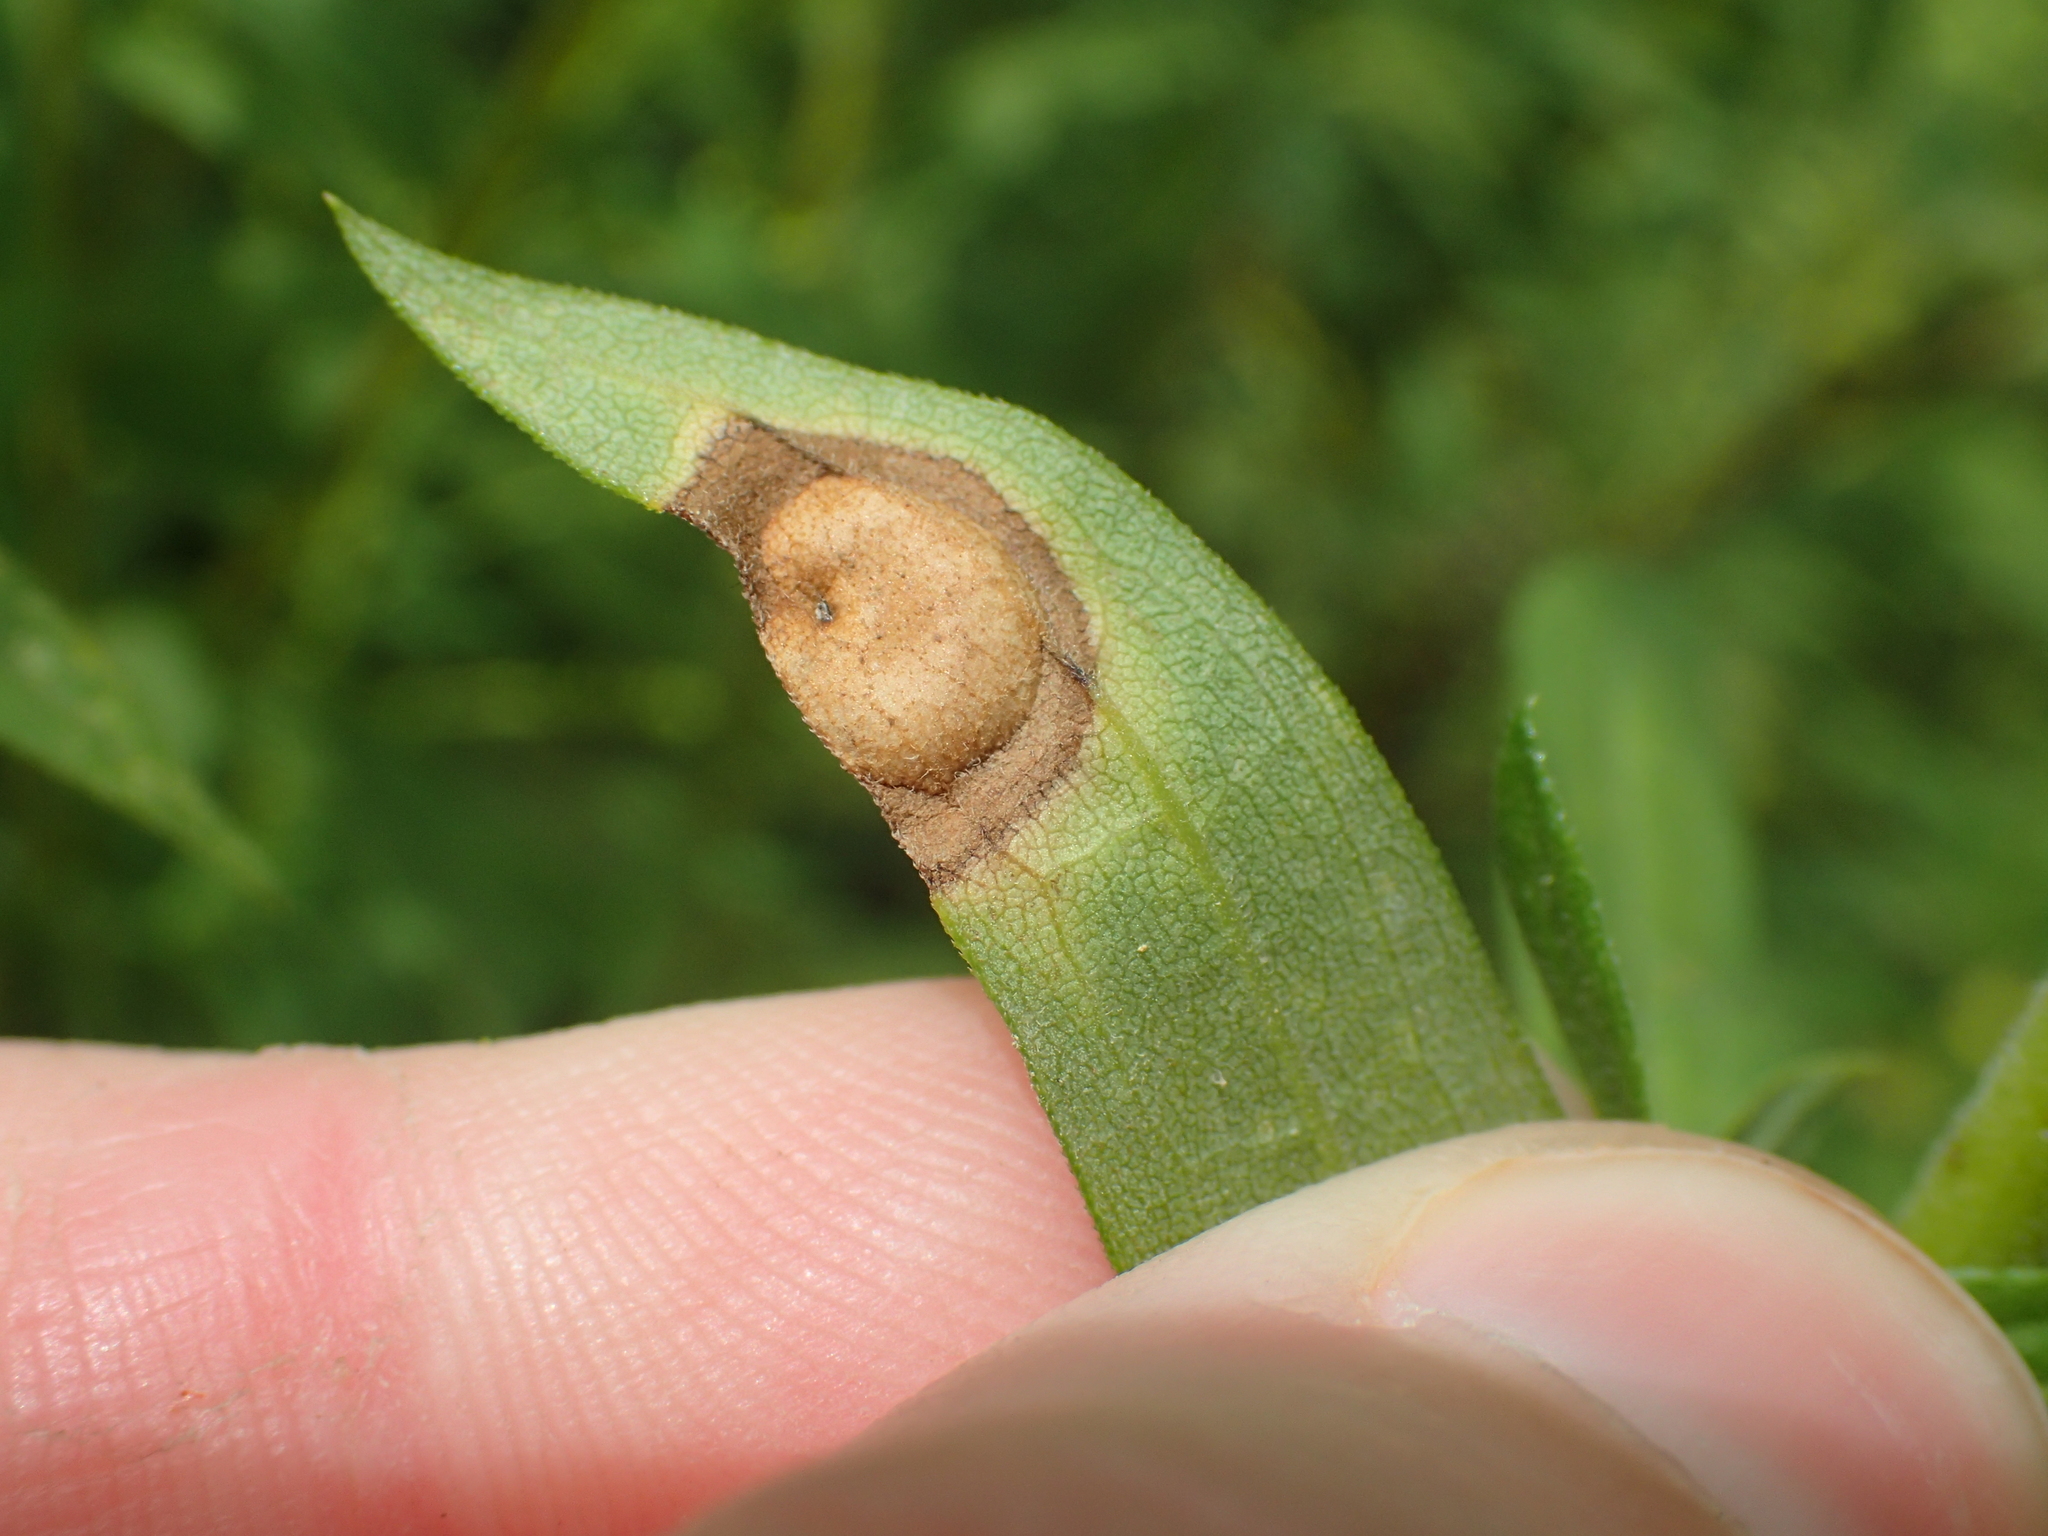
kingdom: Animalia
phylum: Arthropoda
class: Insecta
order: Diptera
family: Cecidomyiidae
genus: Asteromyia
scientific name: Asteromyia carbonifera
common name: Carbonifera goldenrod gall midge
